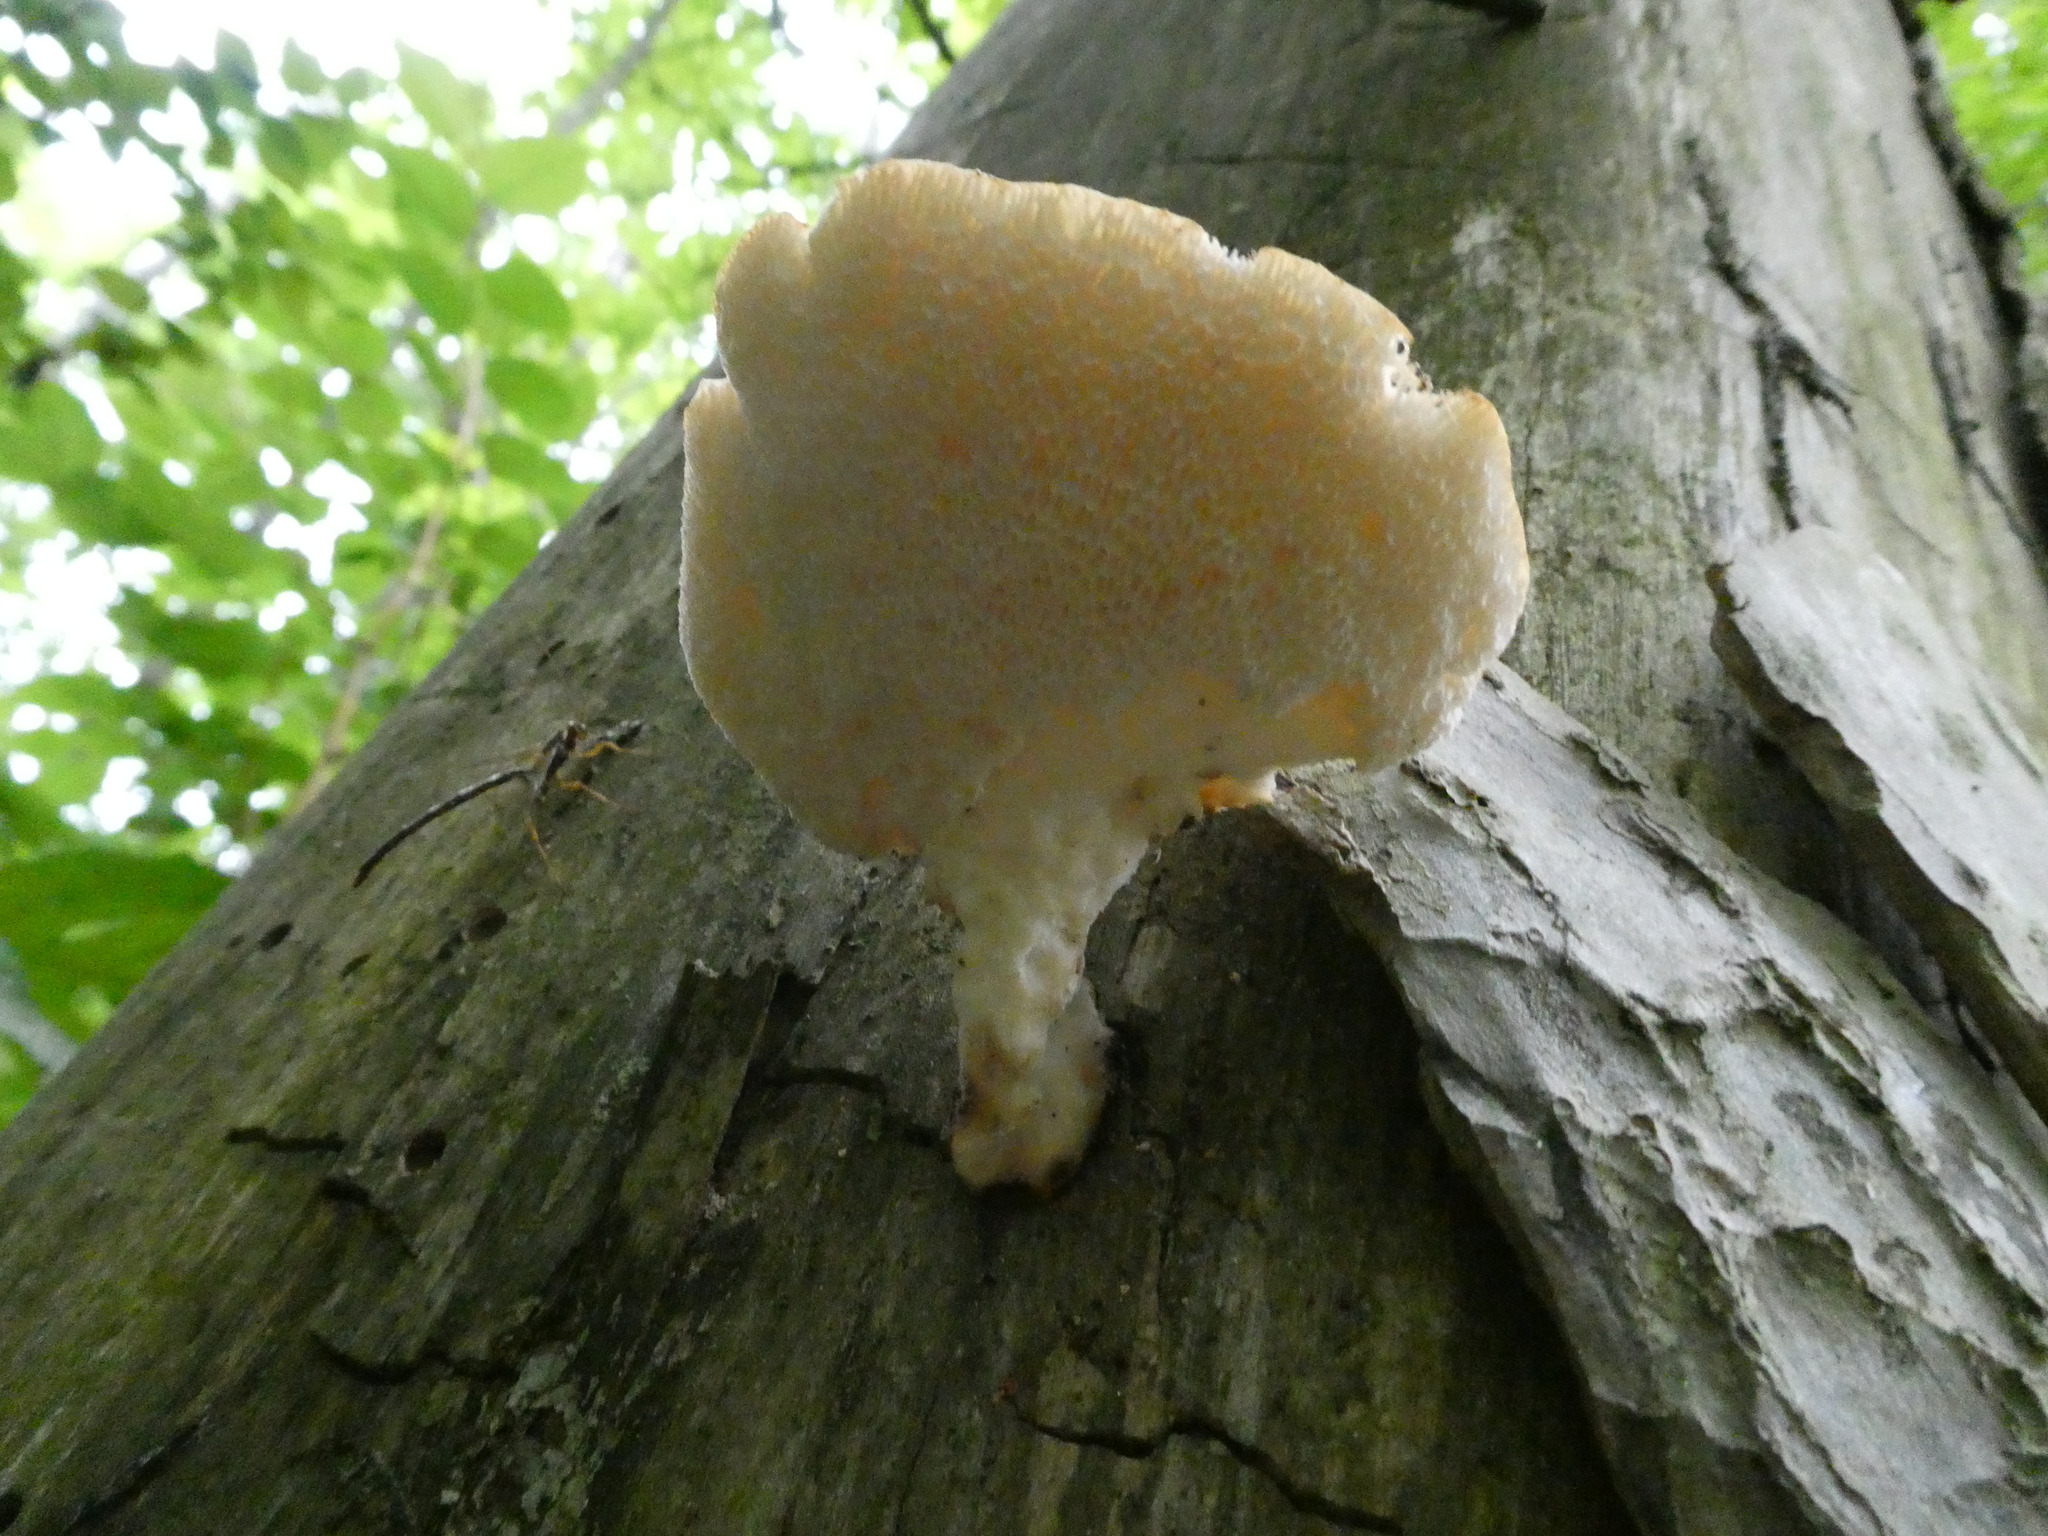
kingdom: Fungi
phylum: Basidiomycota
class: Agaricomycetes
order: Polyporales
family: Polyporaceae
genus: Cerioporus
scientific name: Cerioporus squamosus
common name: Dryad's saddle
